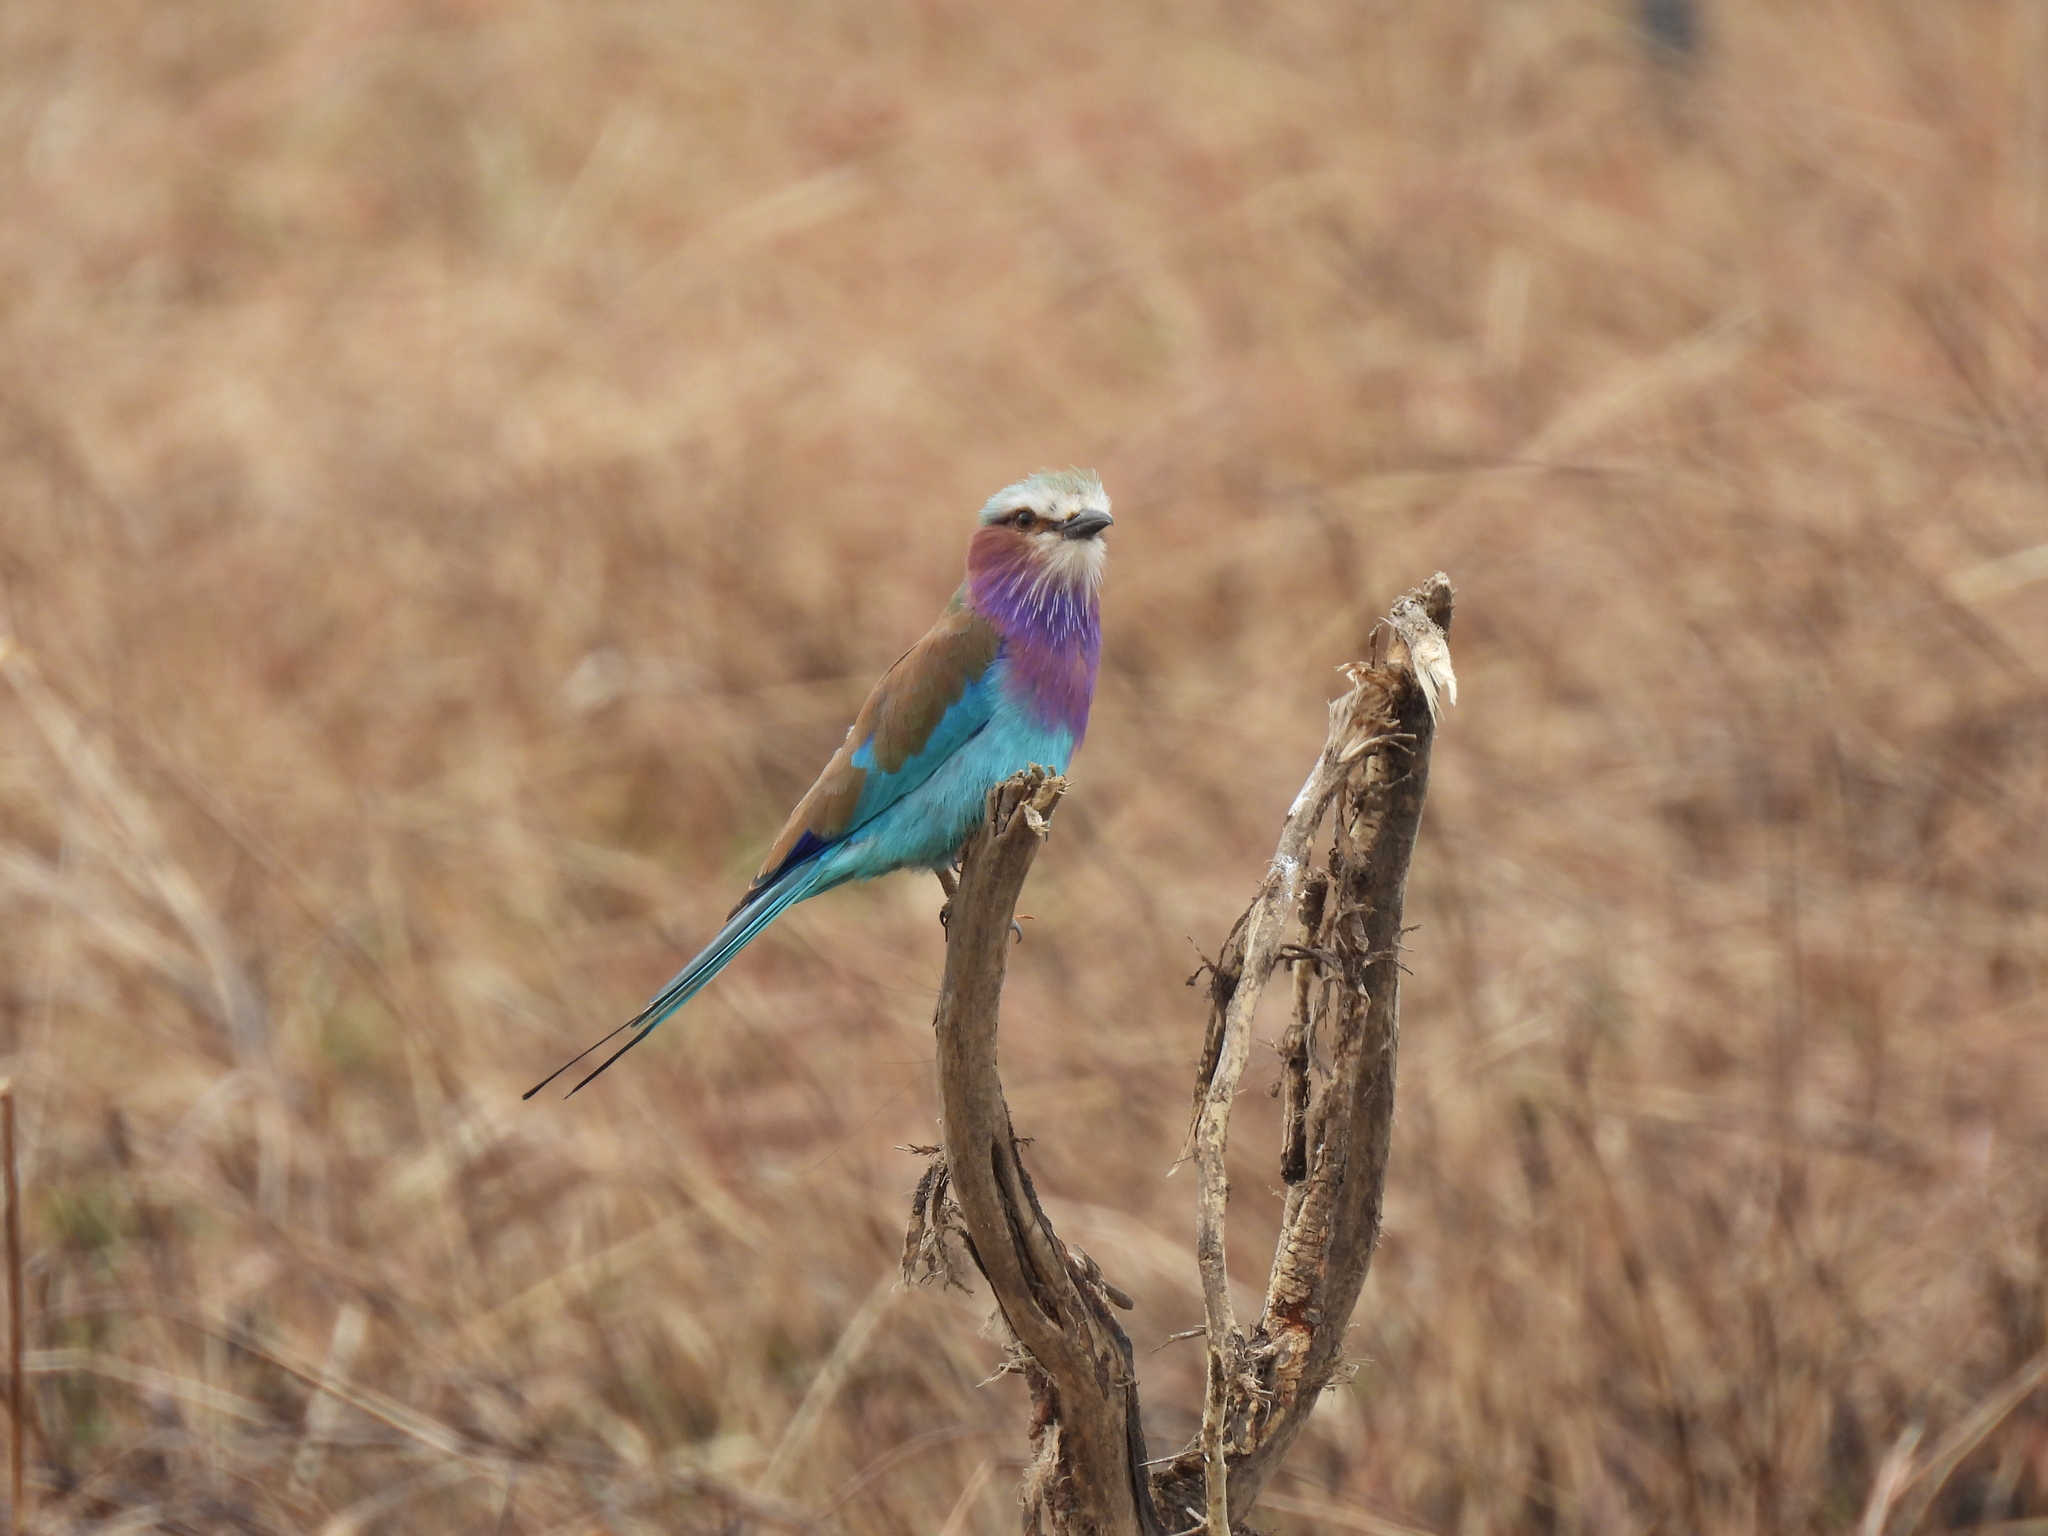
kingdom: Animalia
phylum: Chordata
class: Aves
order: Coraciiformes
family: Coraciidae
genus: Coracias
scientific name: Coracias caudatus
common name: Lilac-breasted roller
